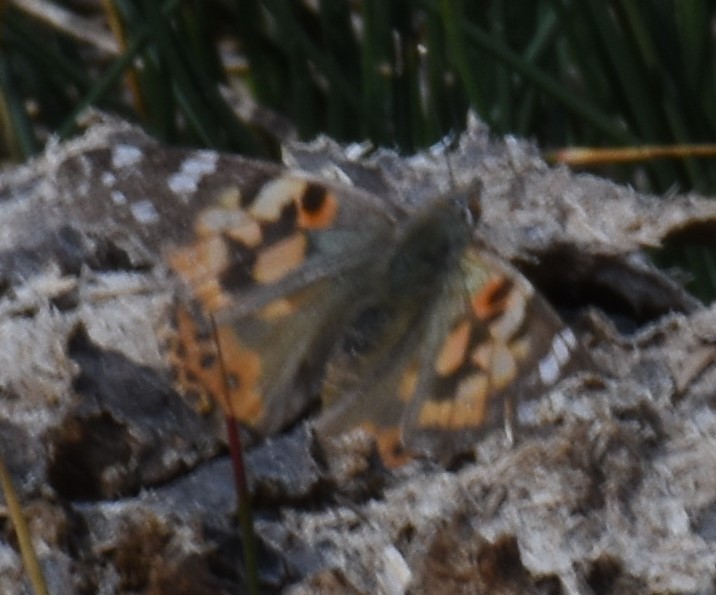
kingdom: Animalia
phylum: Arthropoda
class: Insecta
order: Lepidoptera
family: Nymphalidae
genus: Vanessa
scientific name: Vanessa cardui
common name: Painted lady
